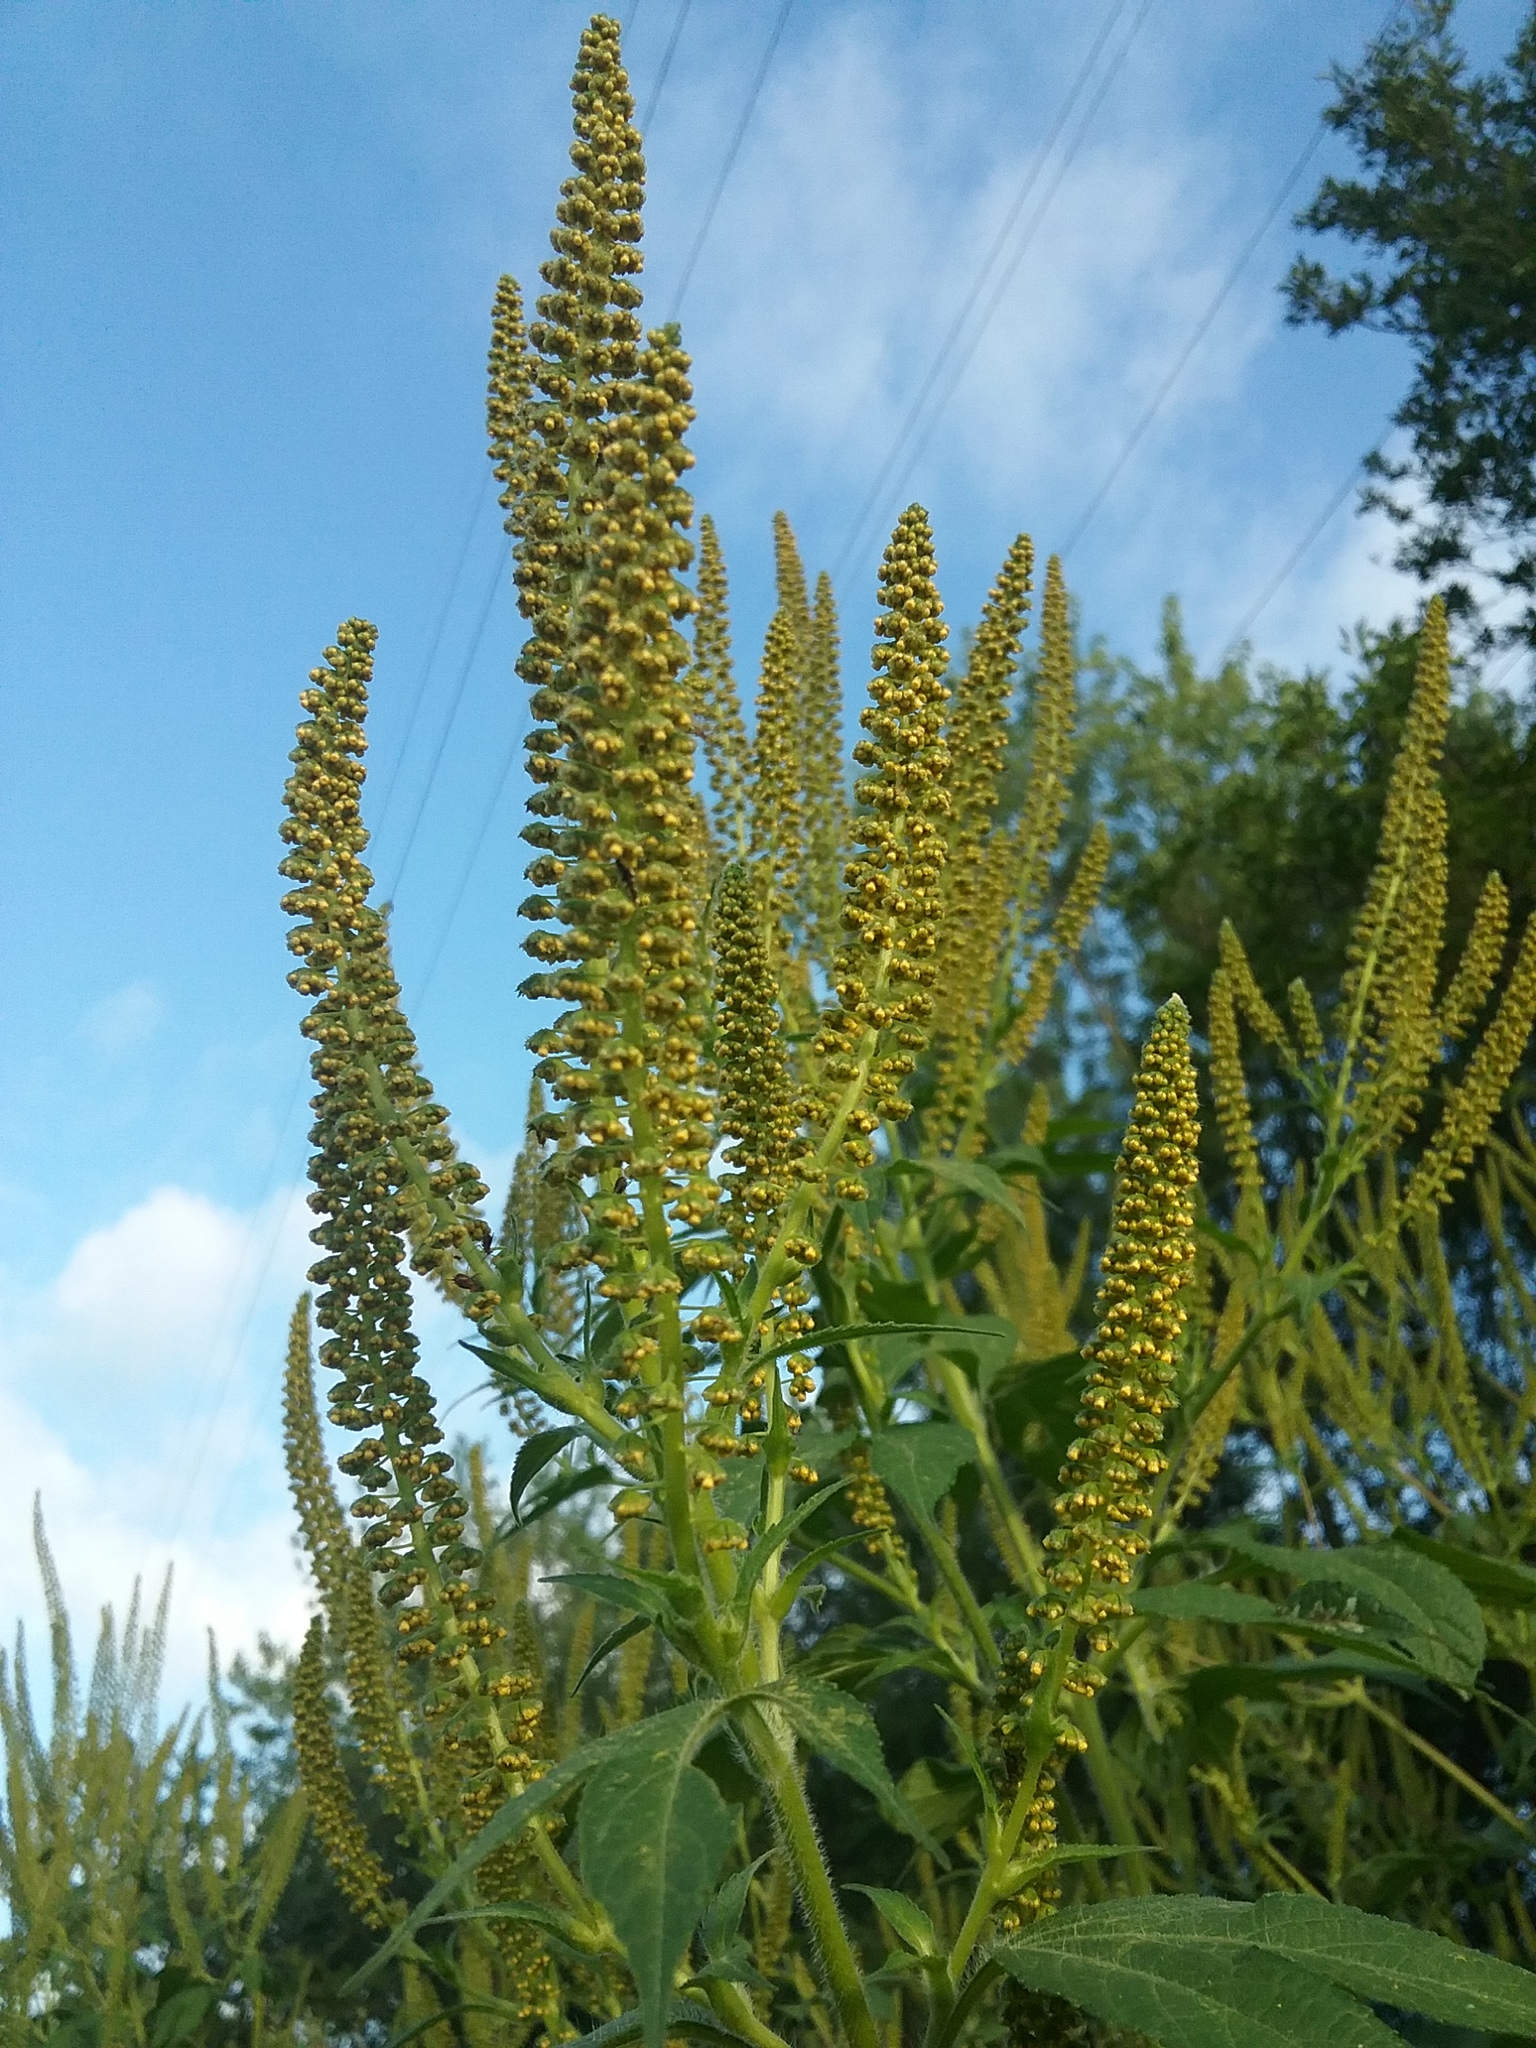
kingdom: Plantae
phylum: Tracheophyta
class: Magnoliopsida
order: Asterales
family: Asteraceae
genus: Ambrosia
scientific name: Ambrosia trifida
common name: Giant ragweed
